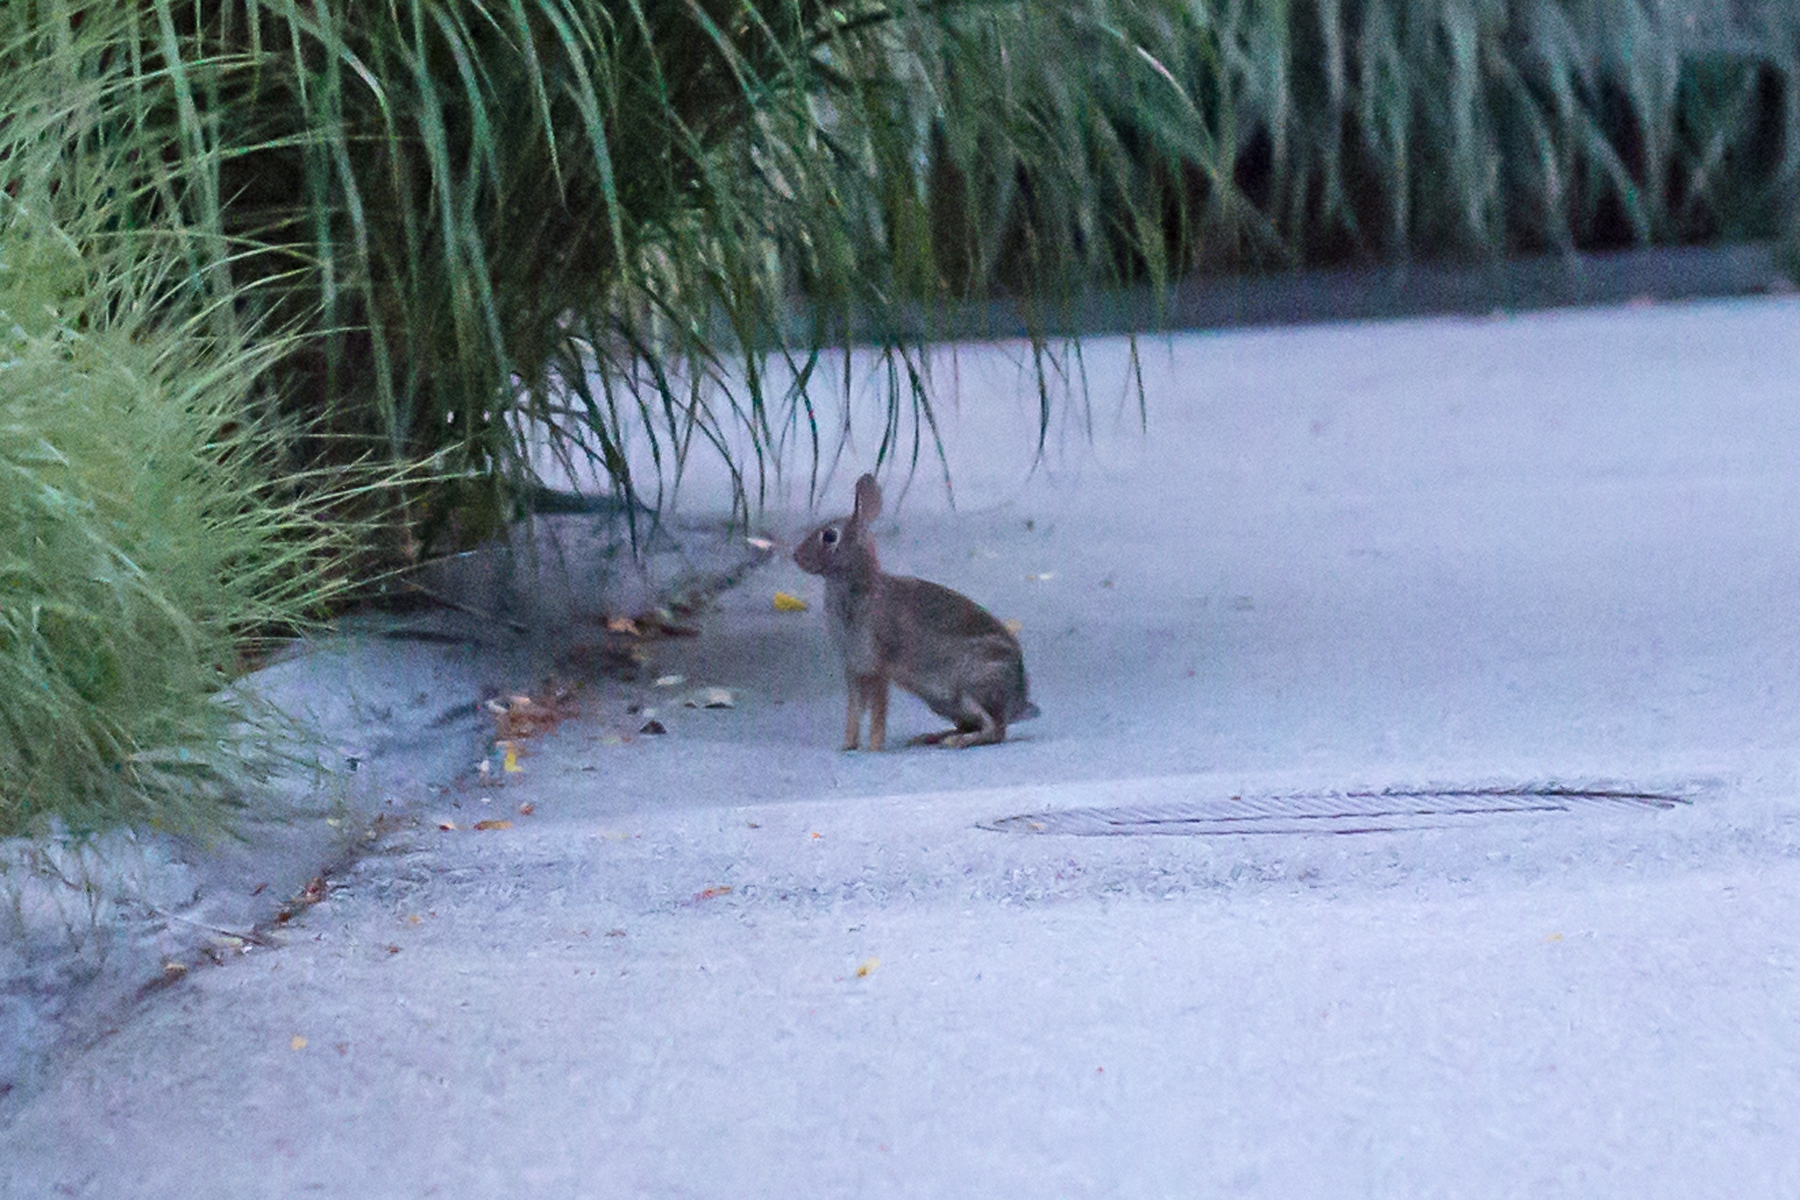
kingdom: Animalia
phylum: Chordata
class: Mammalia
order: Lagomorpha
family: Leporidae
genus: Sylvilagus
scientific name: Sylvilagus floridanus
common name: Eastern cottontail
